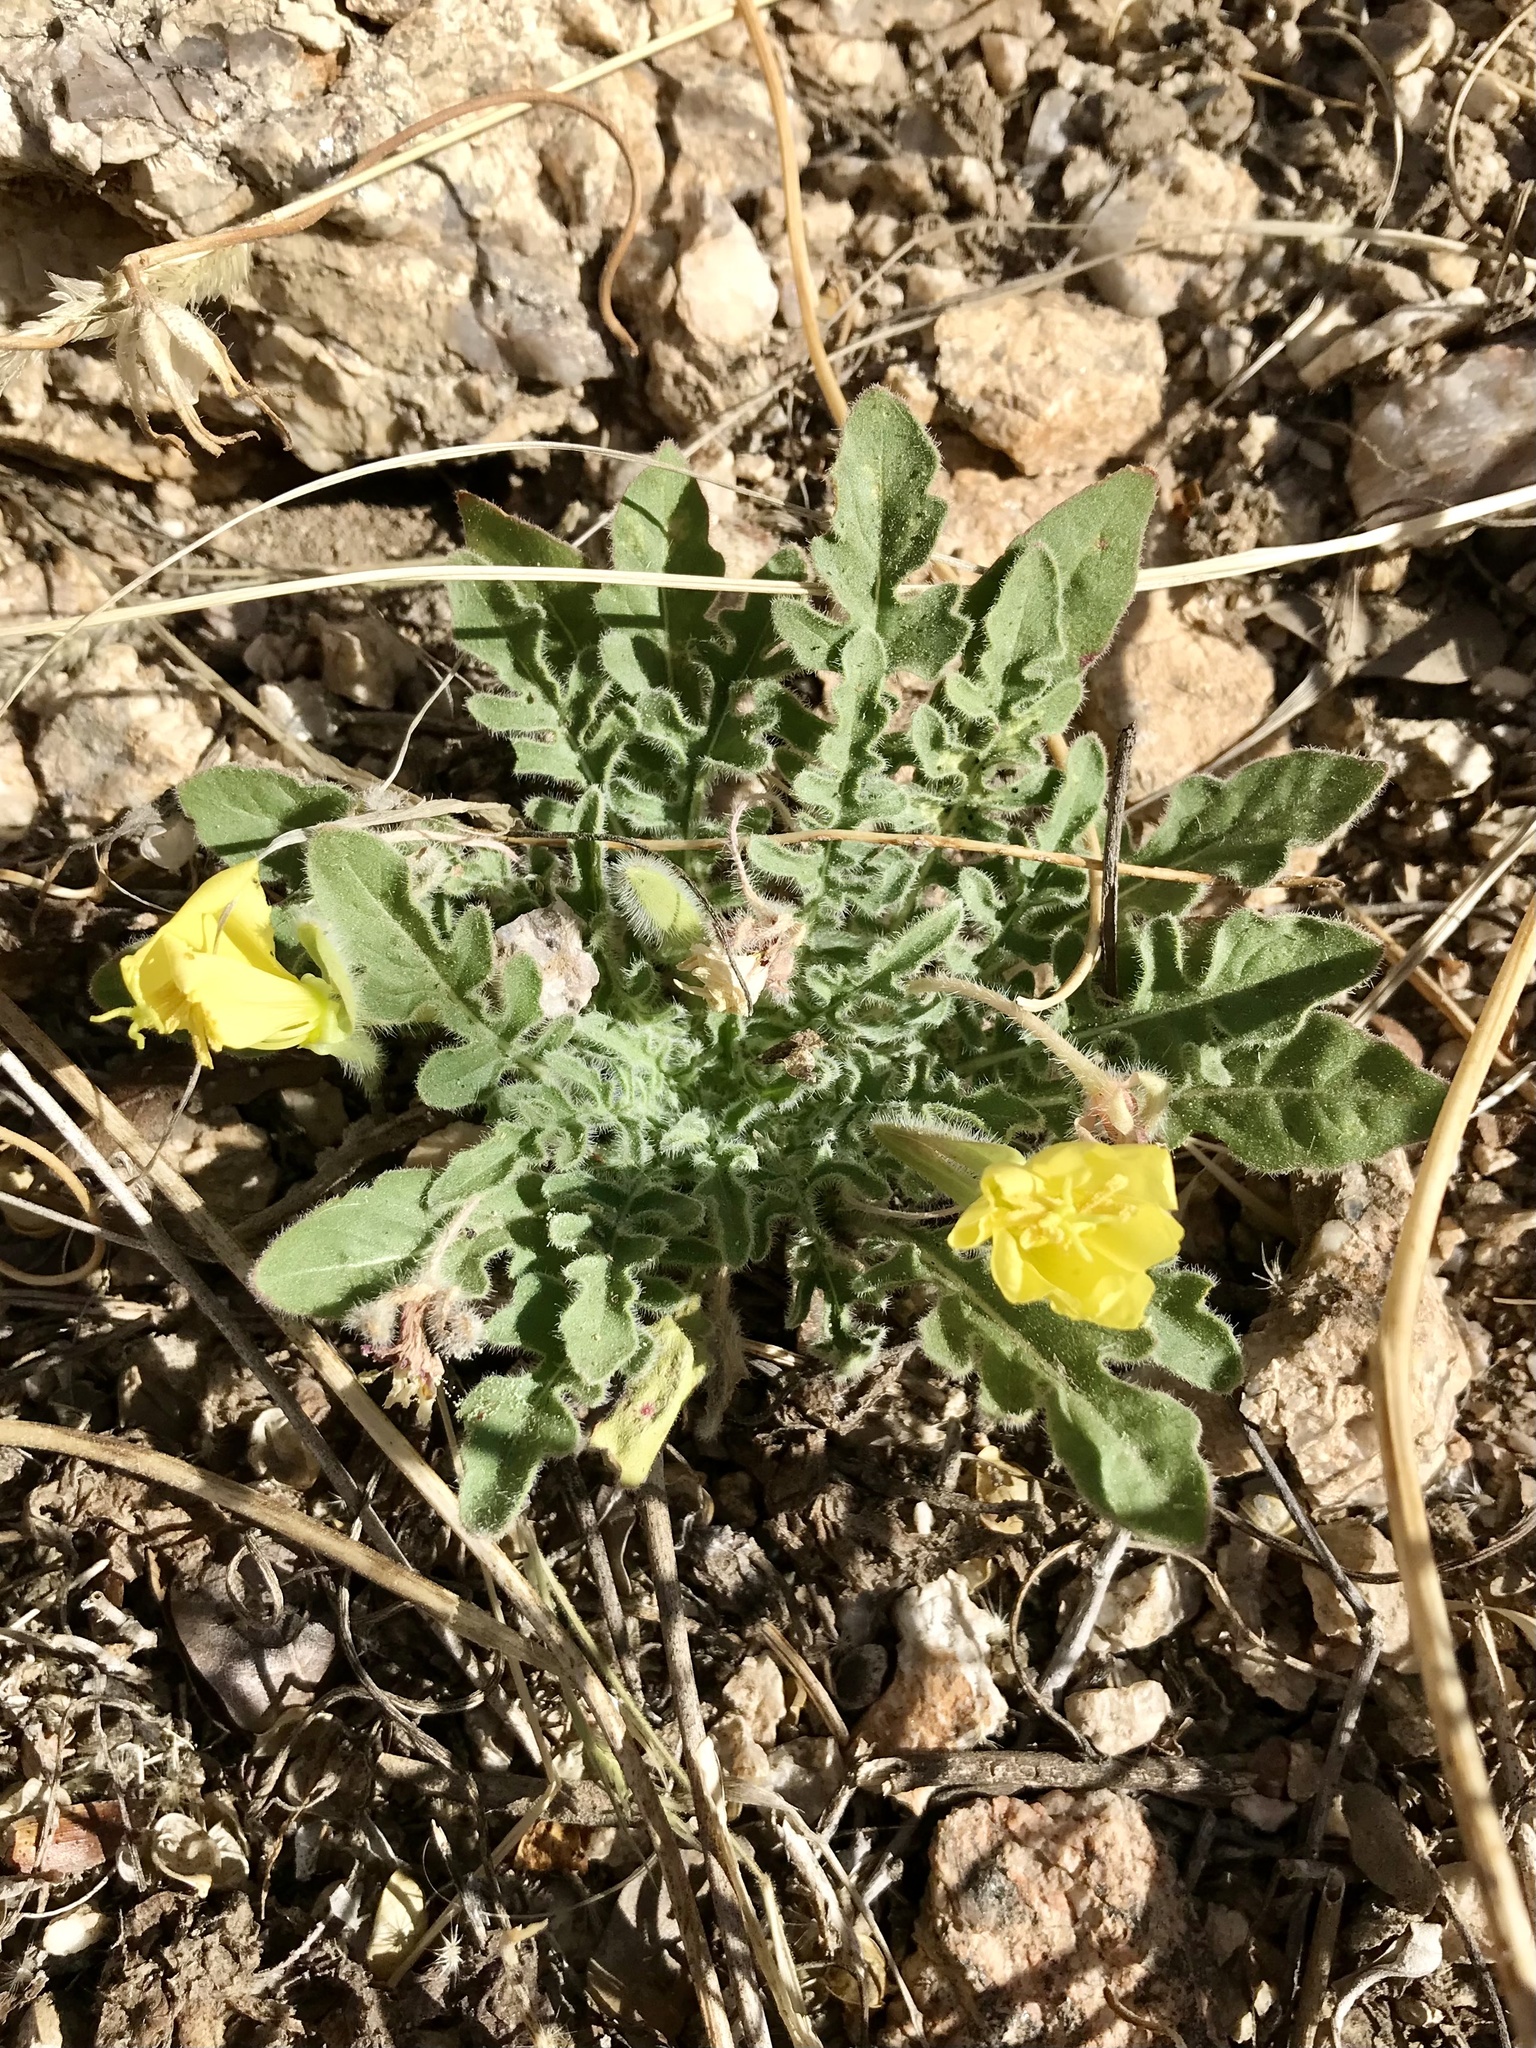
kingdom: Plantae
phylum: Tracheophyta
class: Magnoliopsida
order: Myrtales
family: Onagraceae
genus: Oenothera
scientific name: Oenothera primiveris
